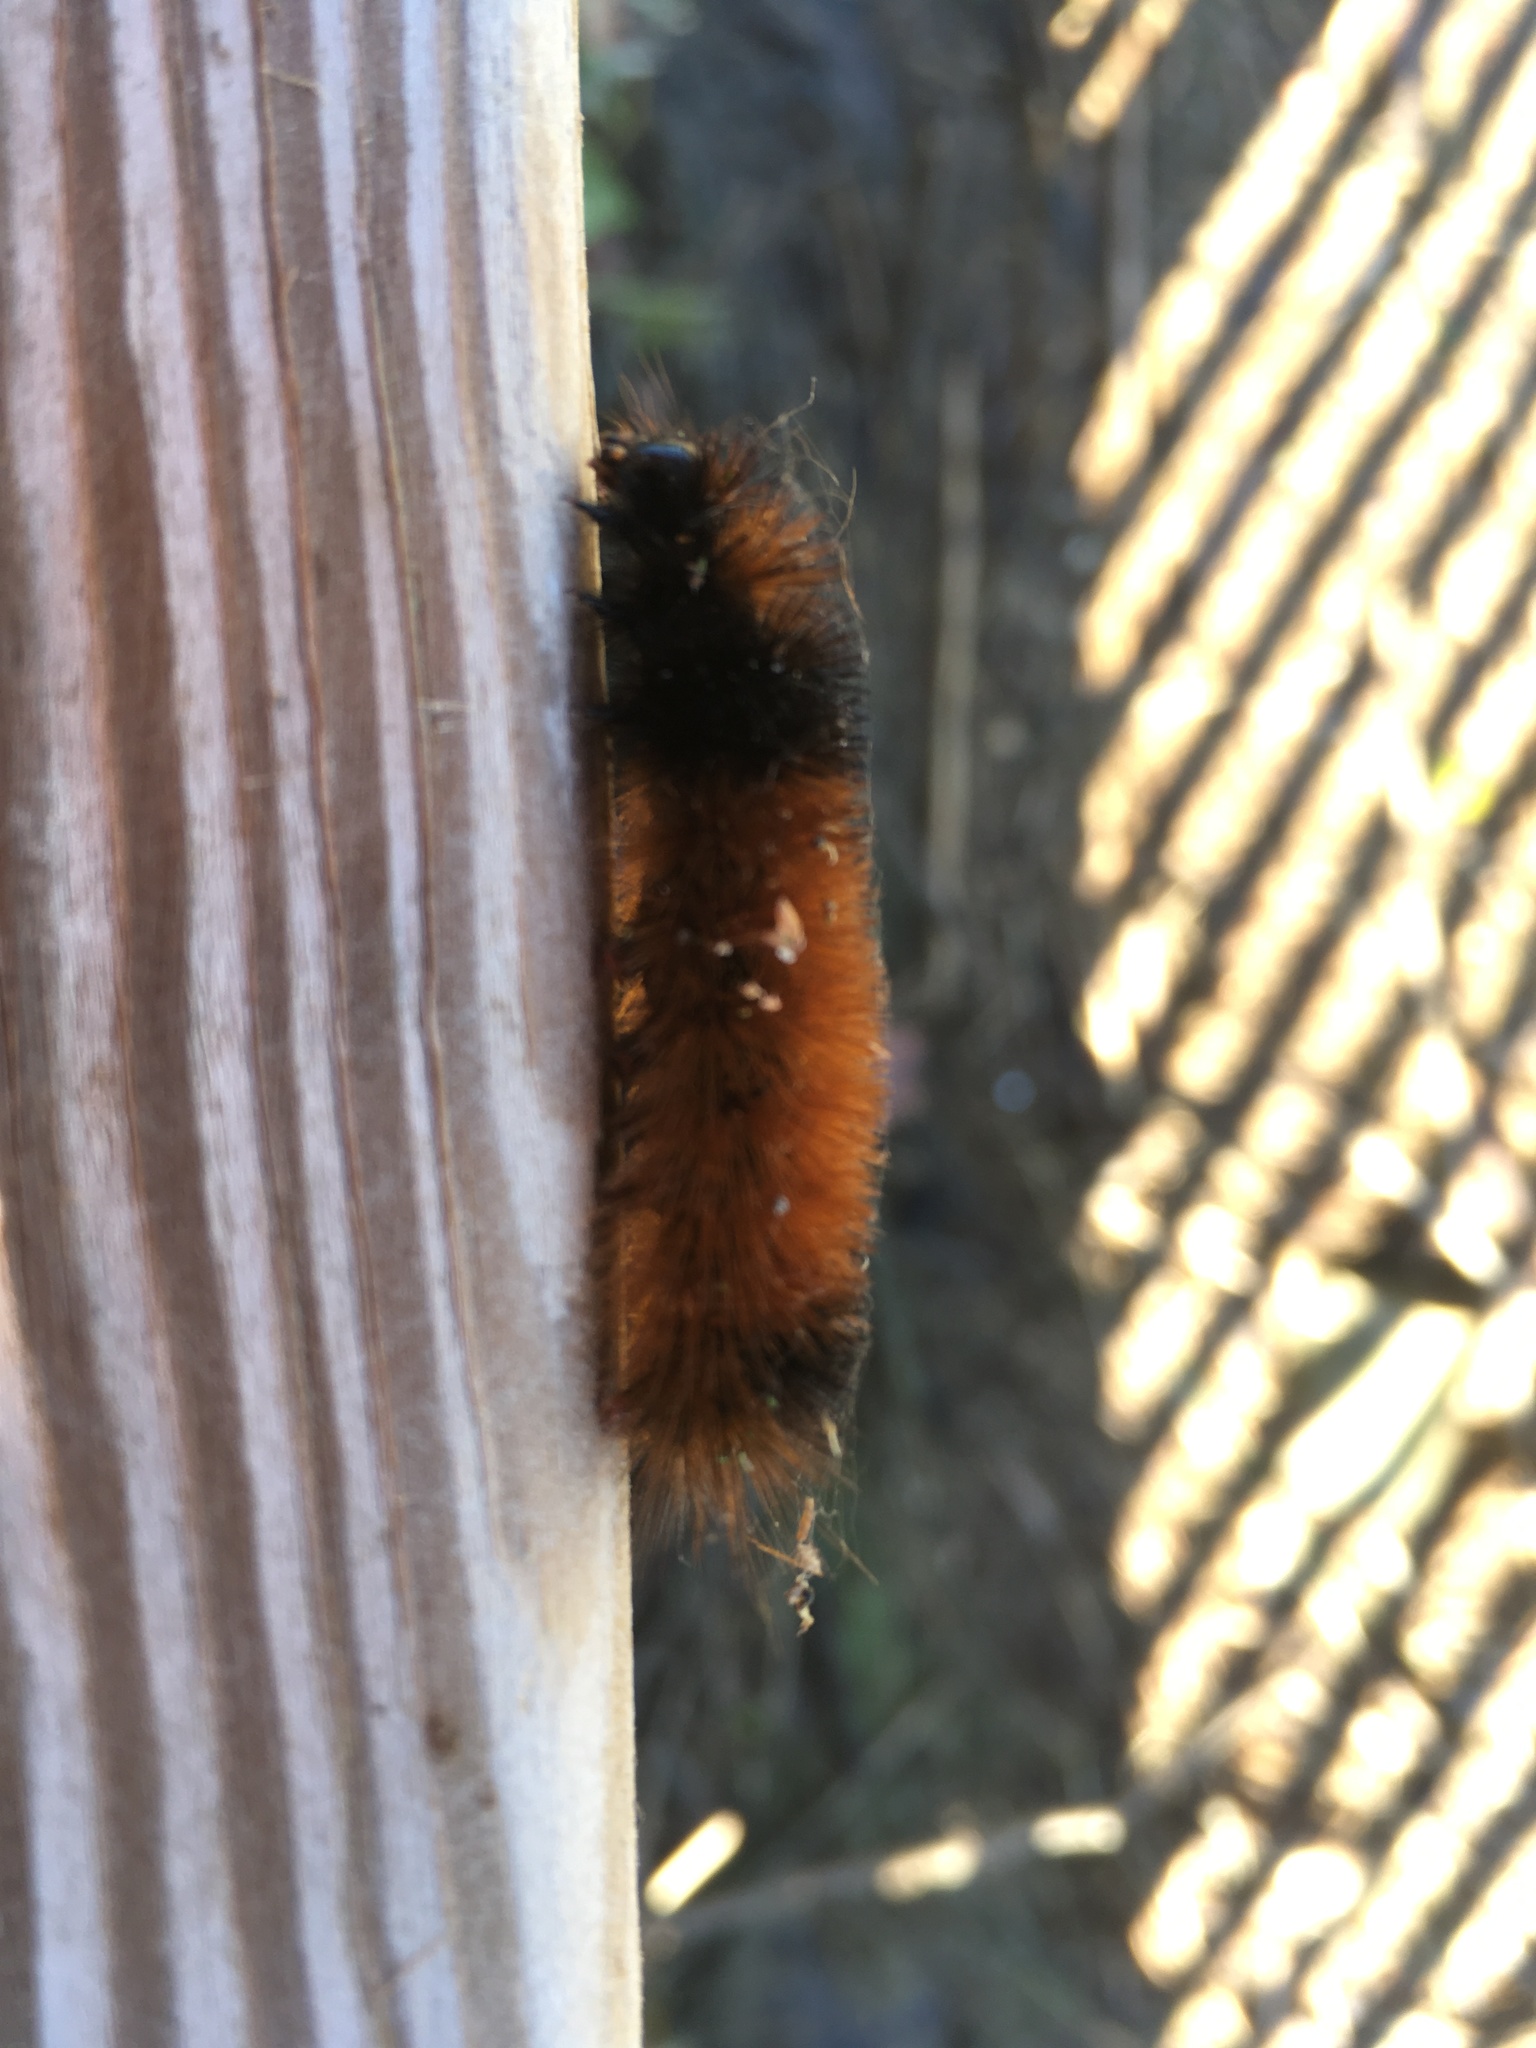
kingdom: Animalia
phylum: Arthropoda
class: Insecta
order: Lepidoptera
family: Erebidae
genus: Pyrrharctia
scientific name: Pyrrharctia isabella
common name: Isabella tiger moth
